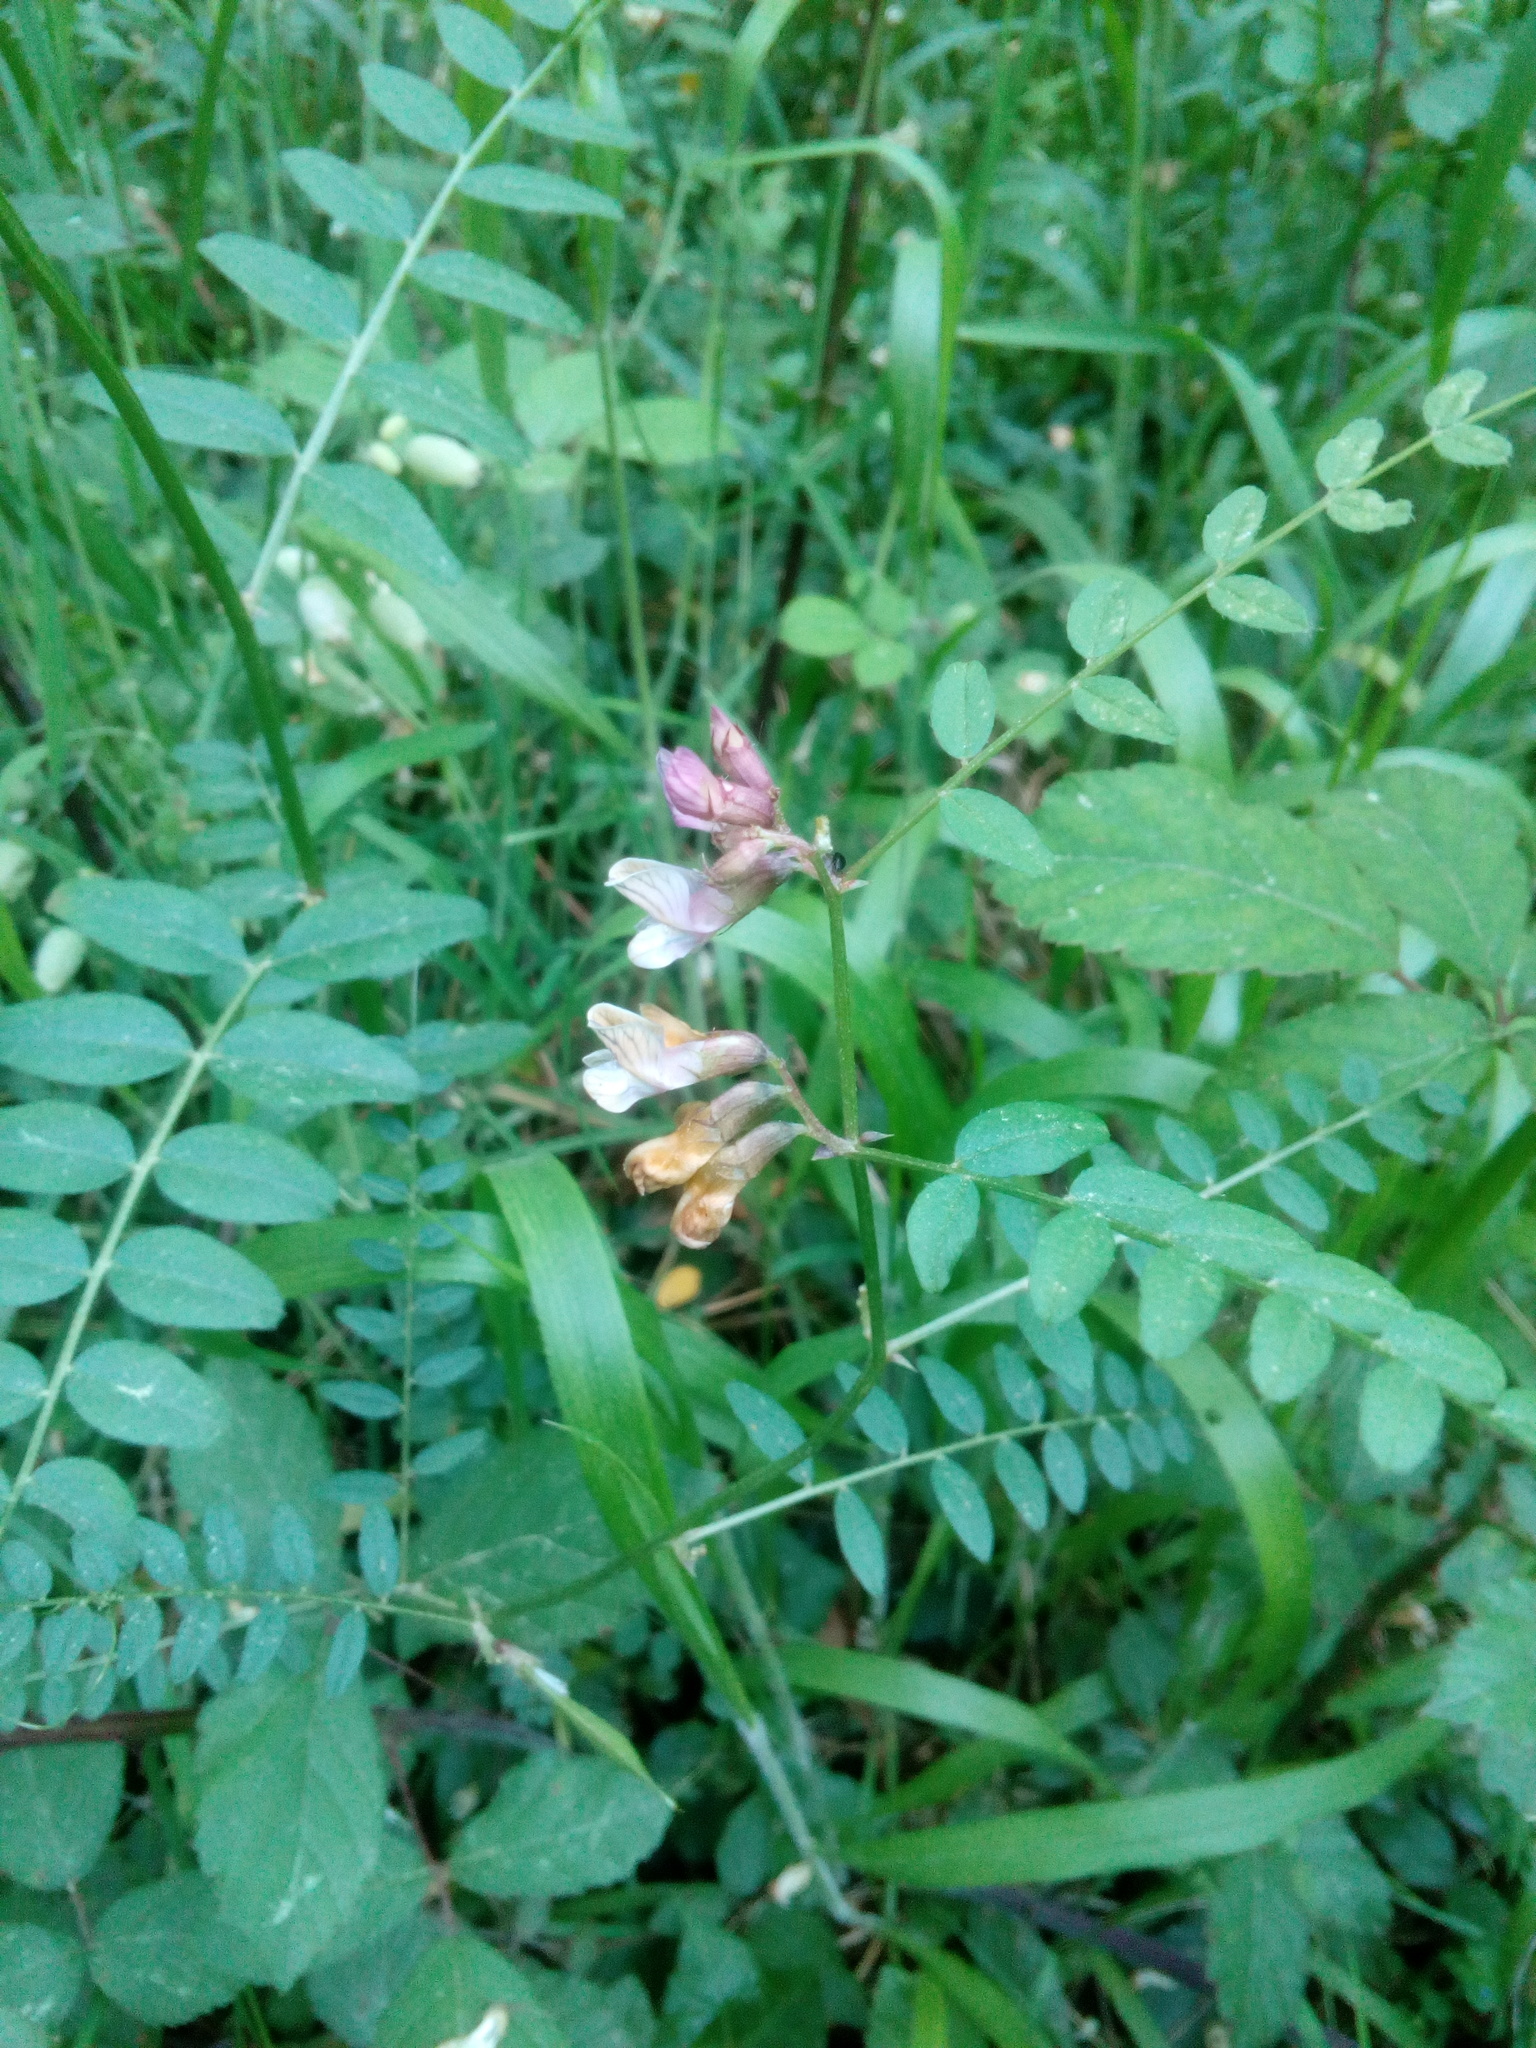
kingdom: Plantae
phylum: Tracheophyta
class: Magnoliopsida
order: Fabales
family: Fabaceae
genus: Vicia
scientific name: Vicia sepium
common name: Bush vetch
